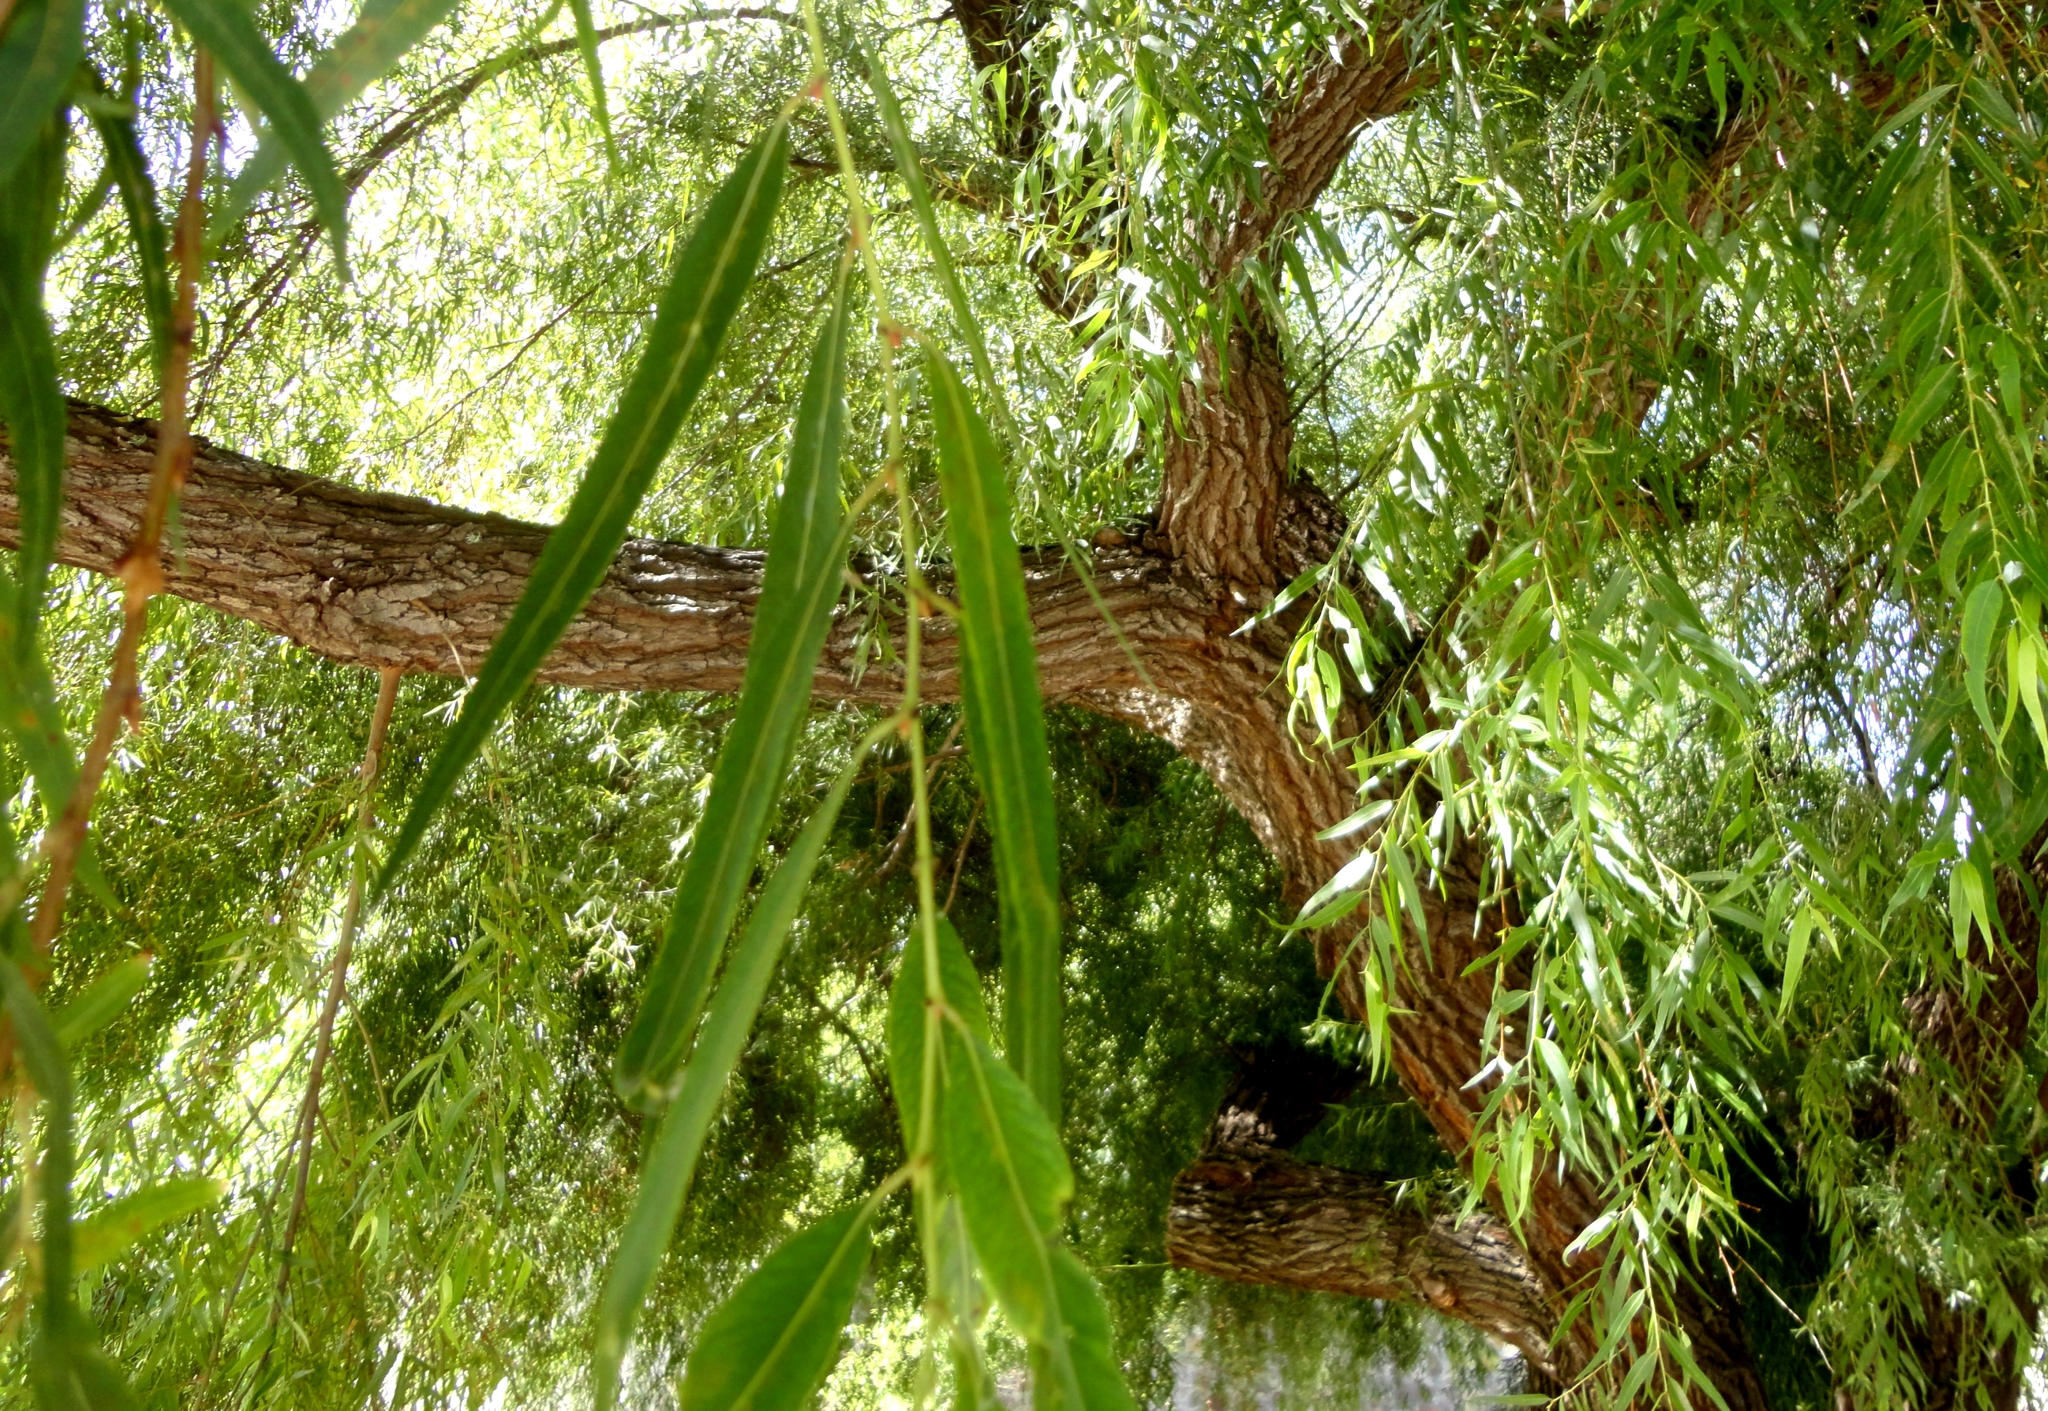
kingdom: Plantae
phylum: Tracheophyta
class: Magnoliopsida
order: Malpighiales
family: Salicaceae
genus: Salix
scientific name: Salix humboldtiana
